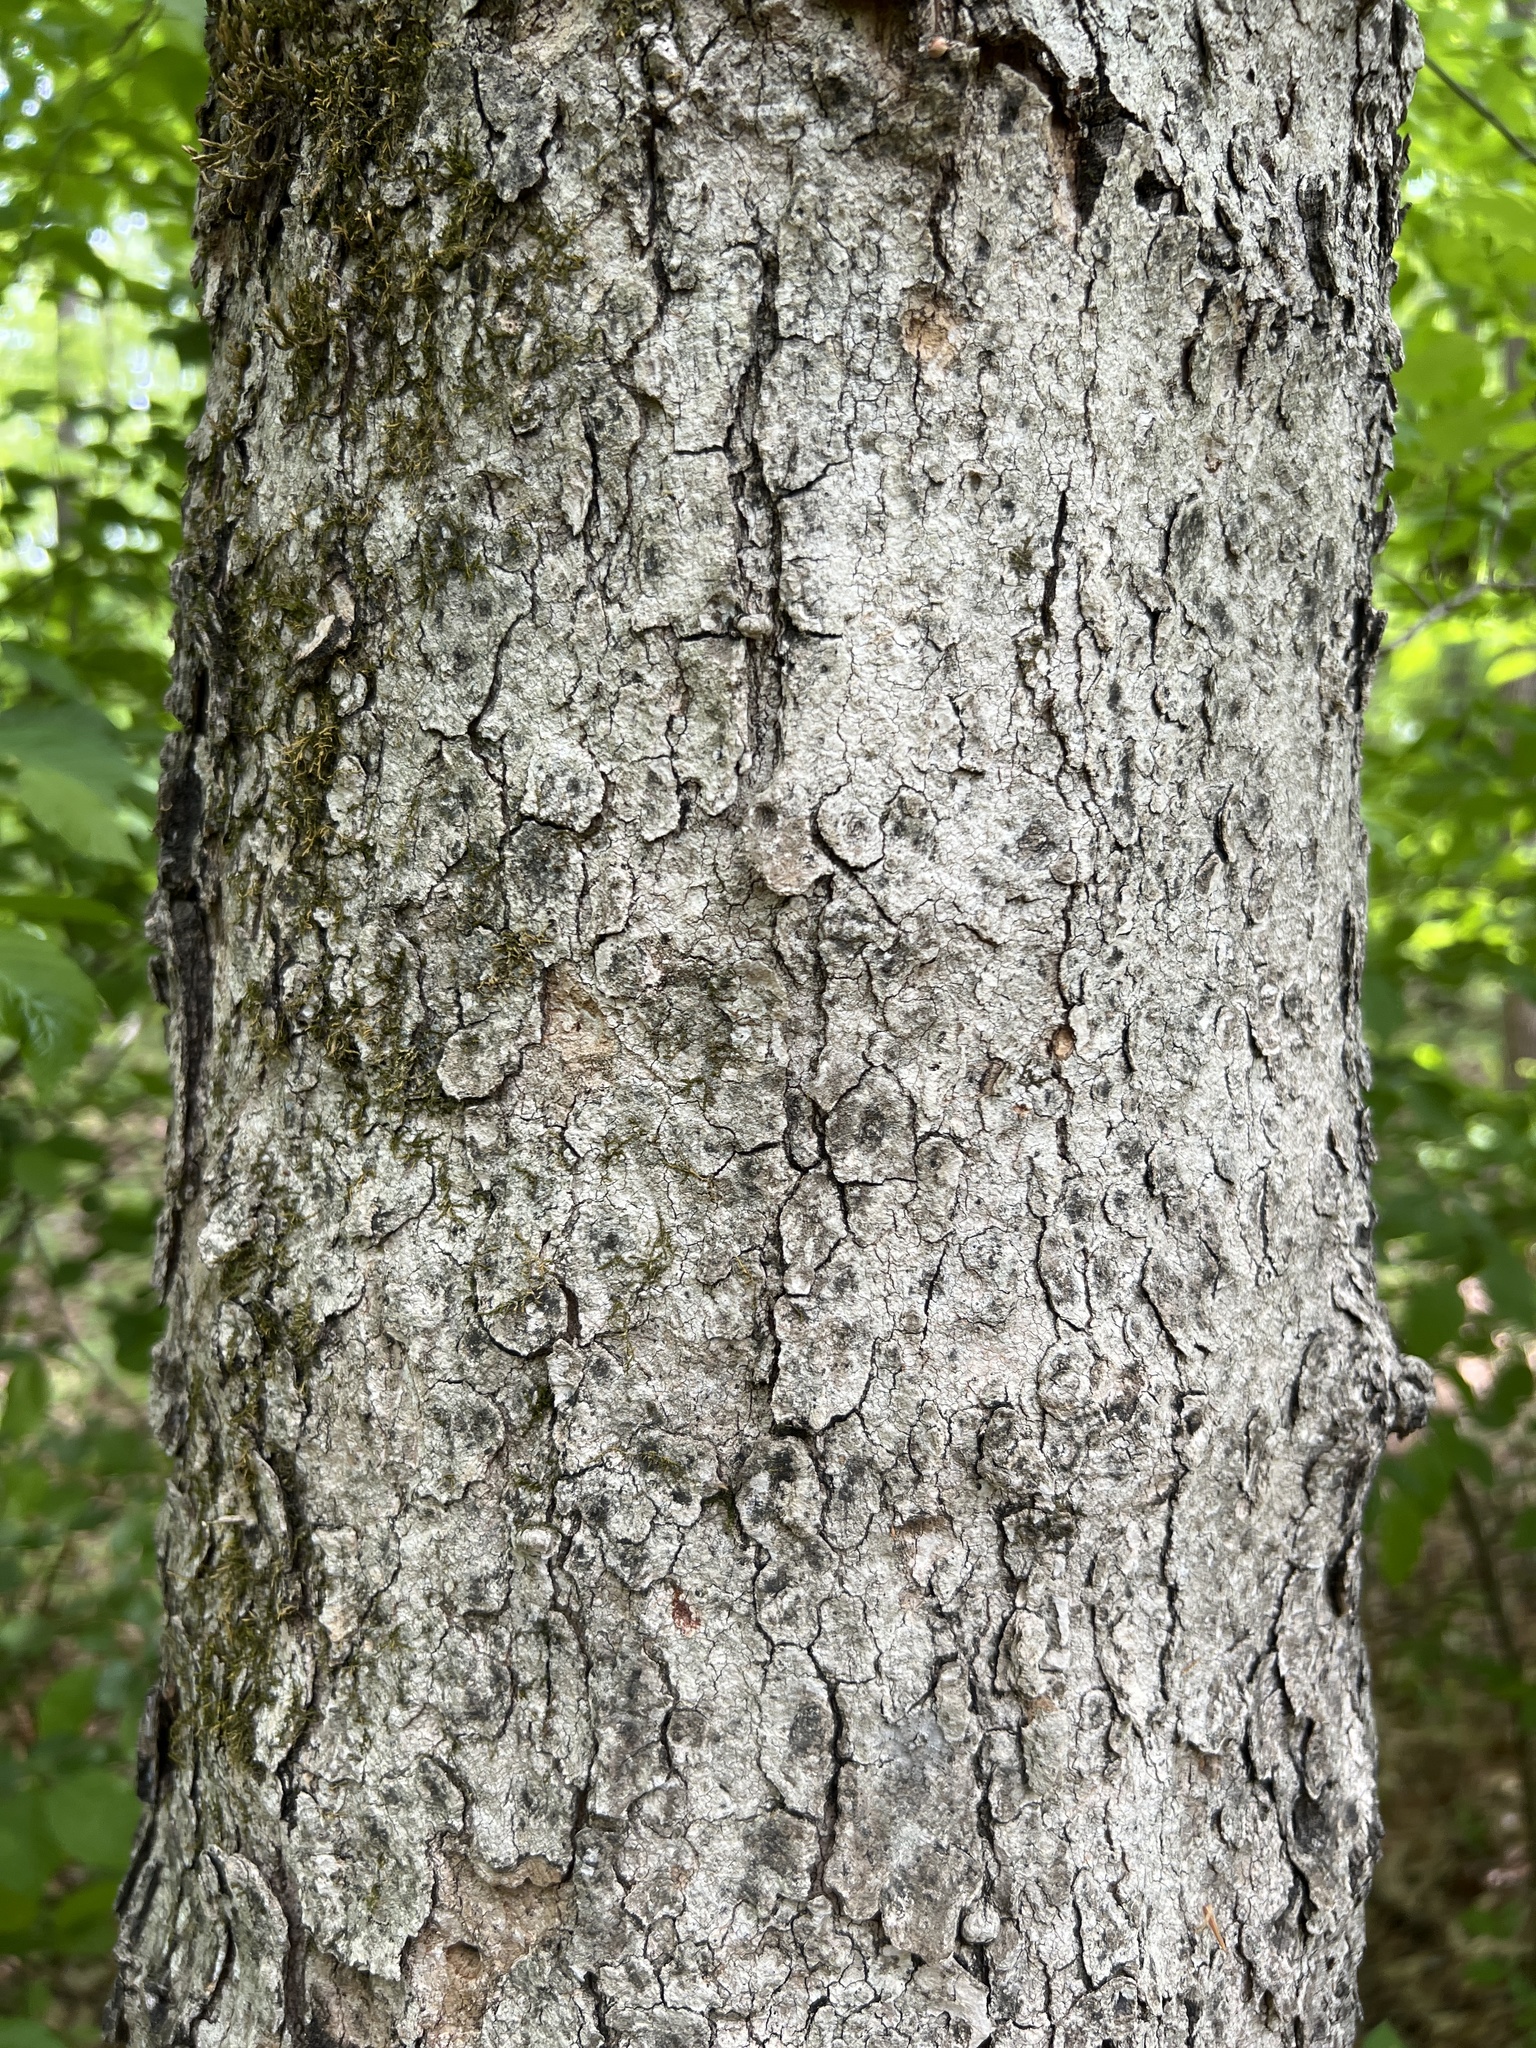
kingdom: Plantae
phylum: Tracheophyta
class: Magnoliopsida
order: Sapindales
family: Sapindaceae
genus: Acer
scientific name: Acer floridanum
